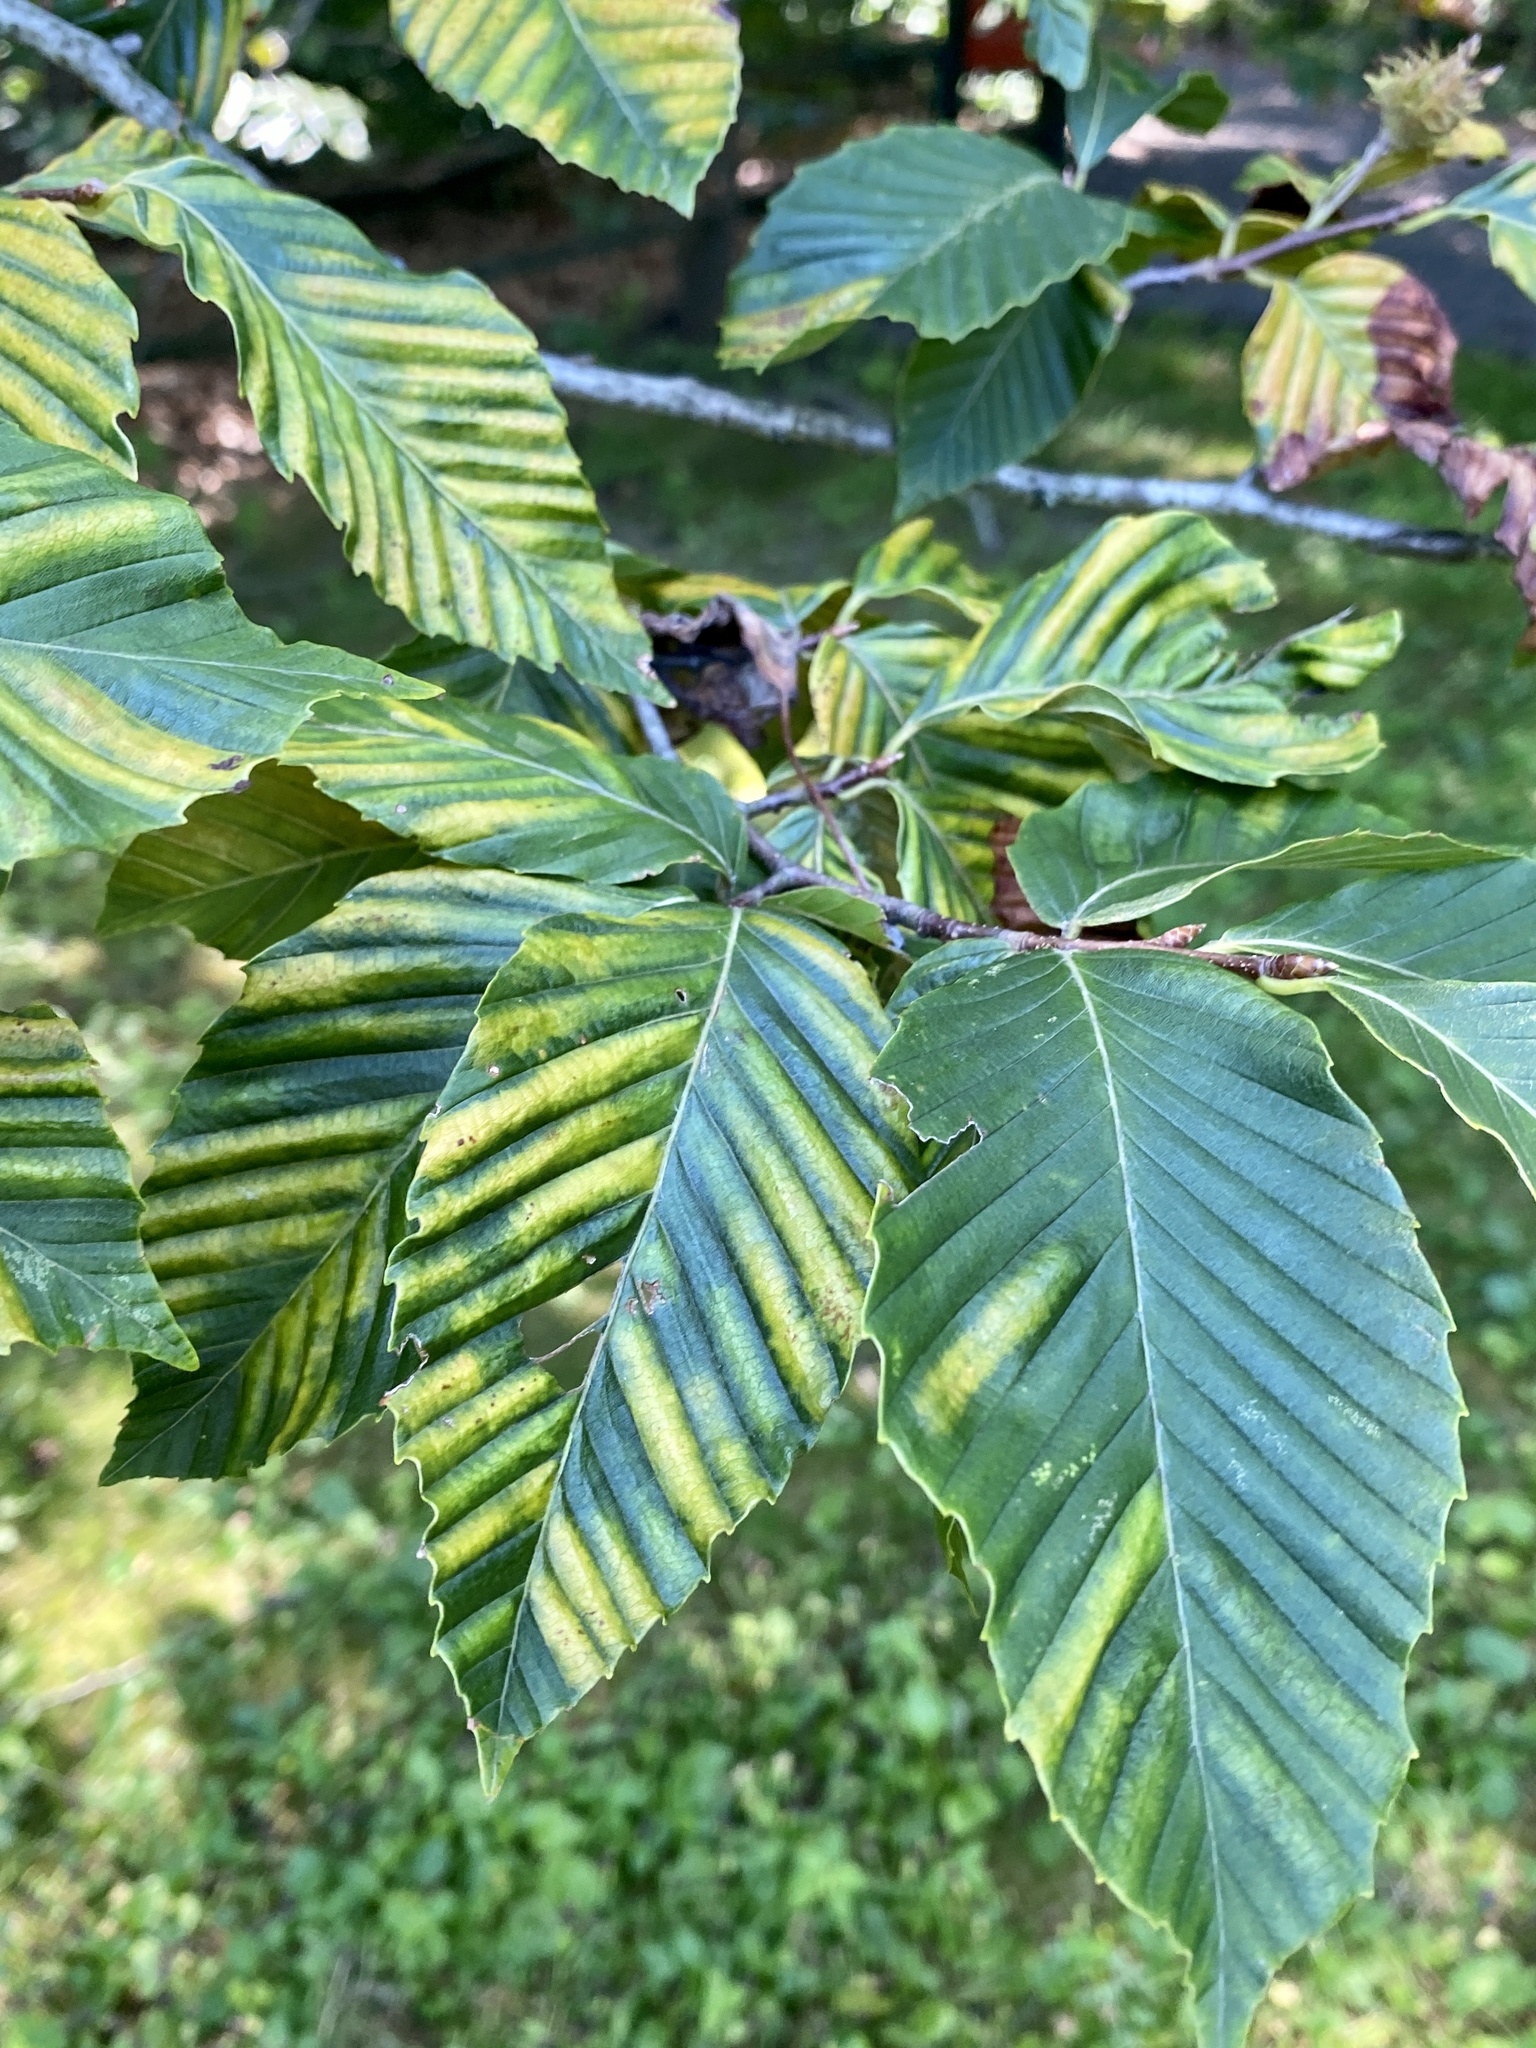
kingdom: Plantae
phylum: Tracheophyta
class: Magnoliopsida
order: Fagales
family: Fagaceae
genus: Fagus
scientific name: Fagus grandifolia
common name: American beech
